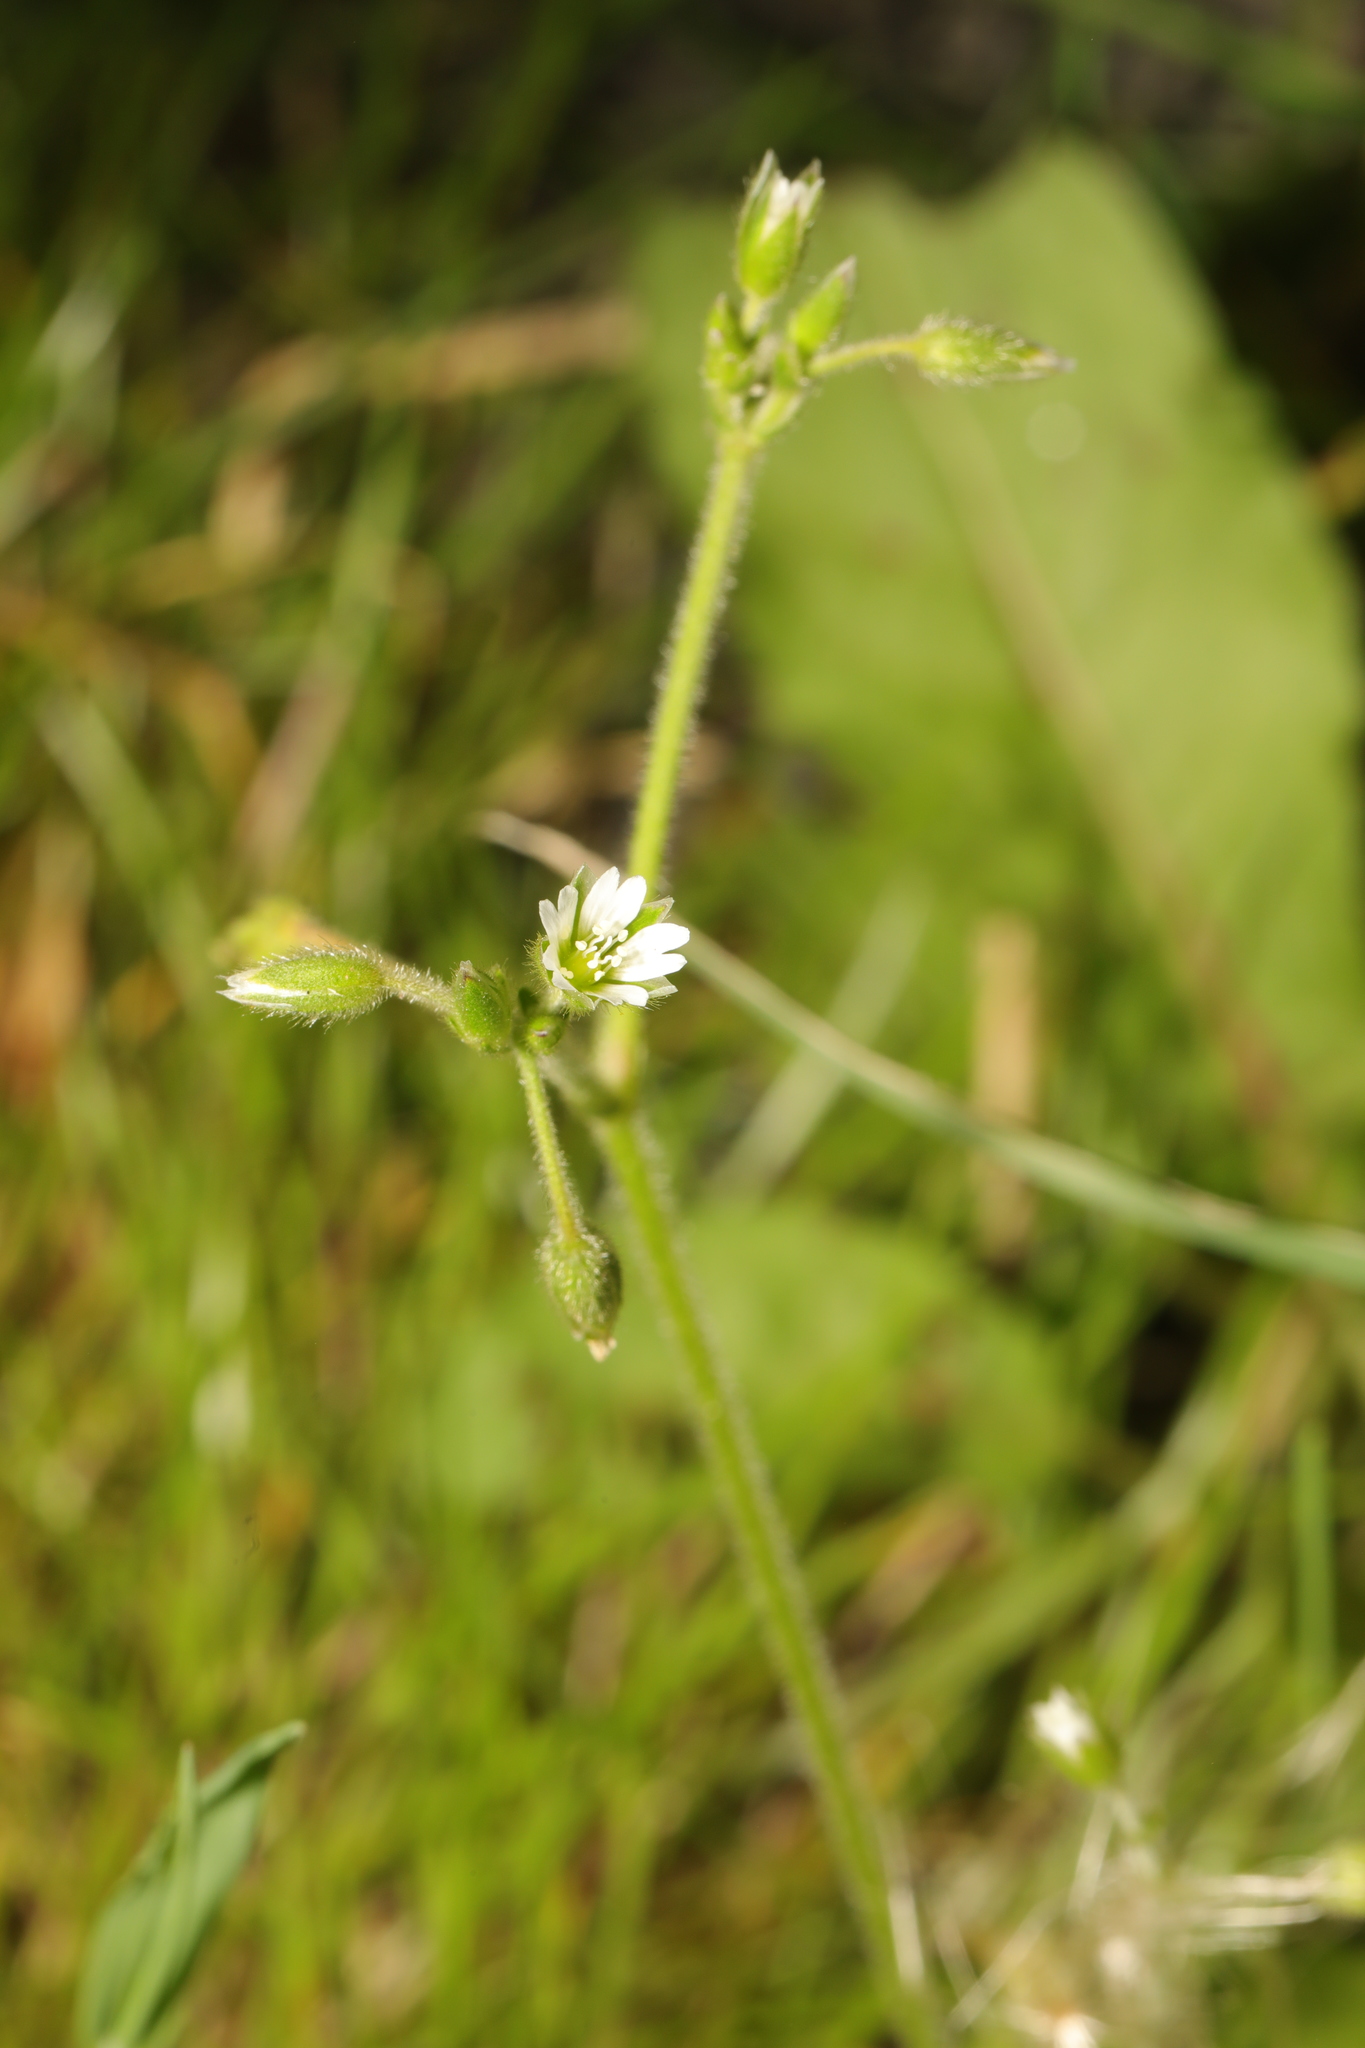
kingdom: Plantae
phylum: Tracheophyta
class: Magnoliopsida
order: Caryophyllales
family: Caryophyllaceae
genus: Cerastium
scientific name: Cerastium fontanum
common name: Common mouse-ear
